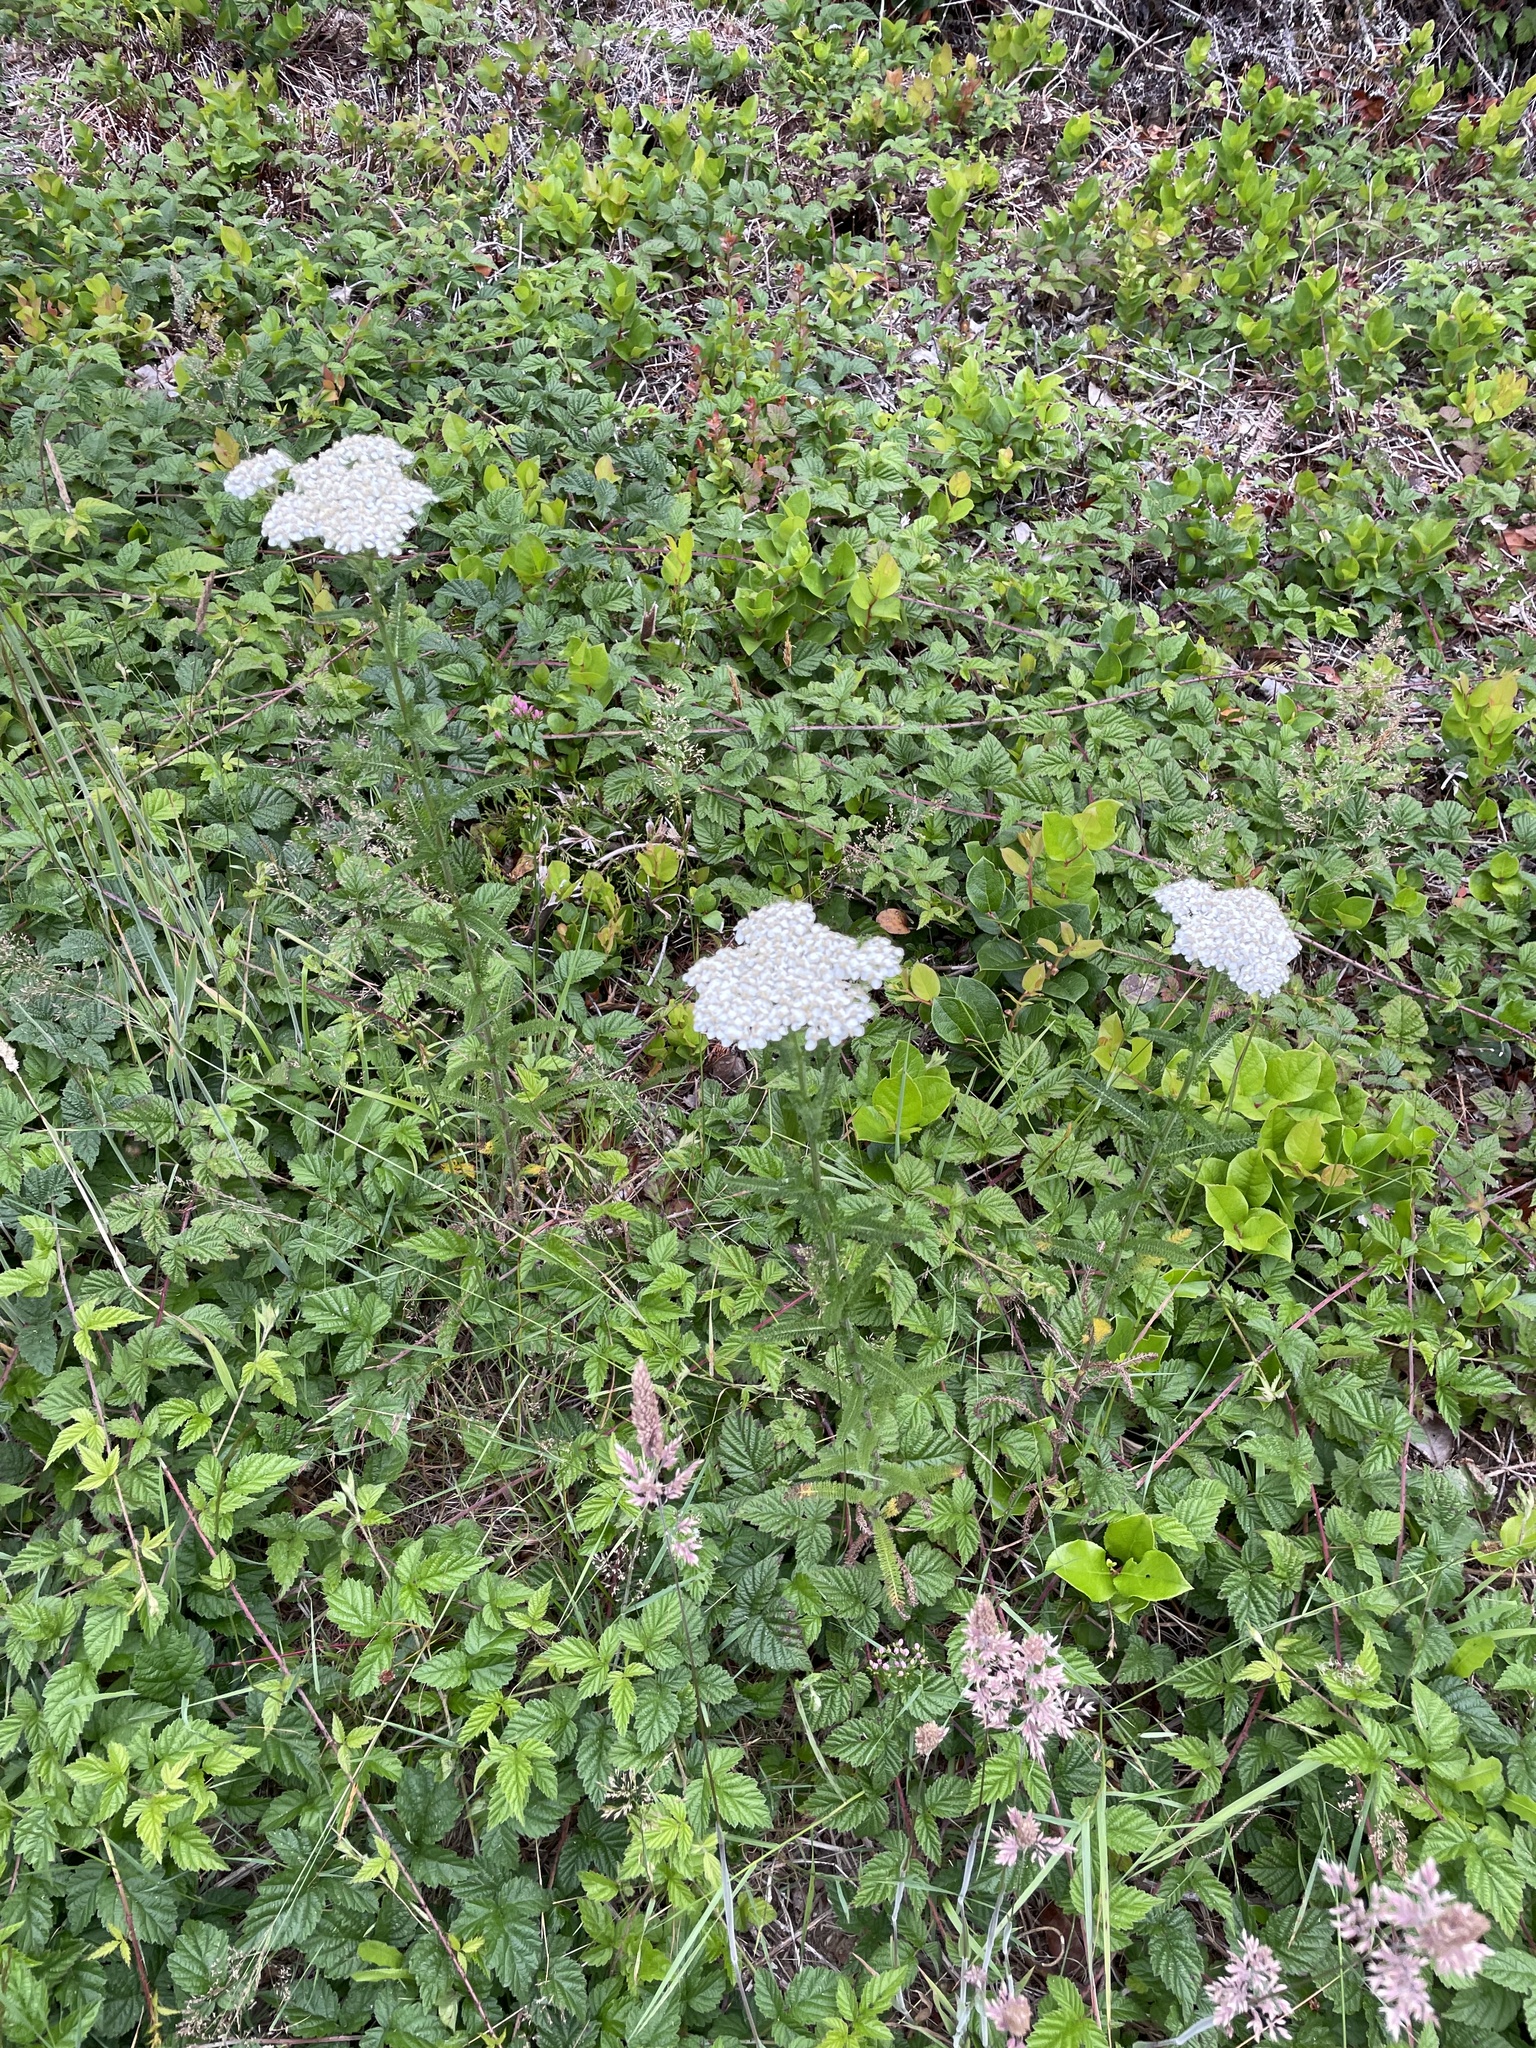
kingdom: Plantae
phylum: Tracheophyta
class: Magnoliopsida
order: Asterales
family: Asteraceae
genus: Achillea
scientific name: Achillea millefolium
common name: Yarrow
